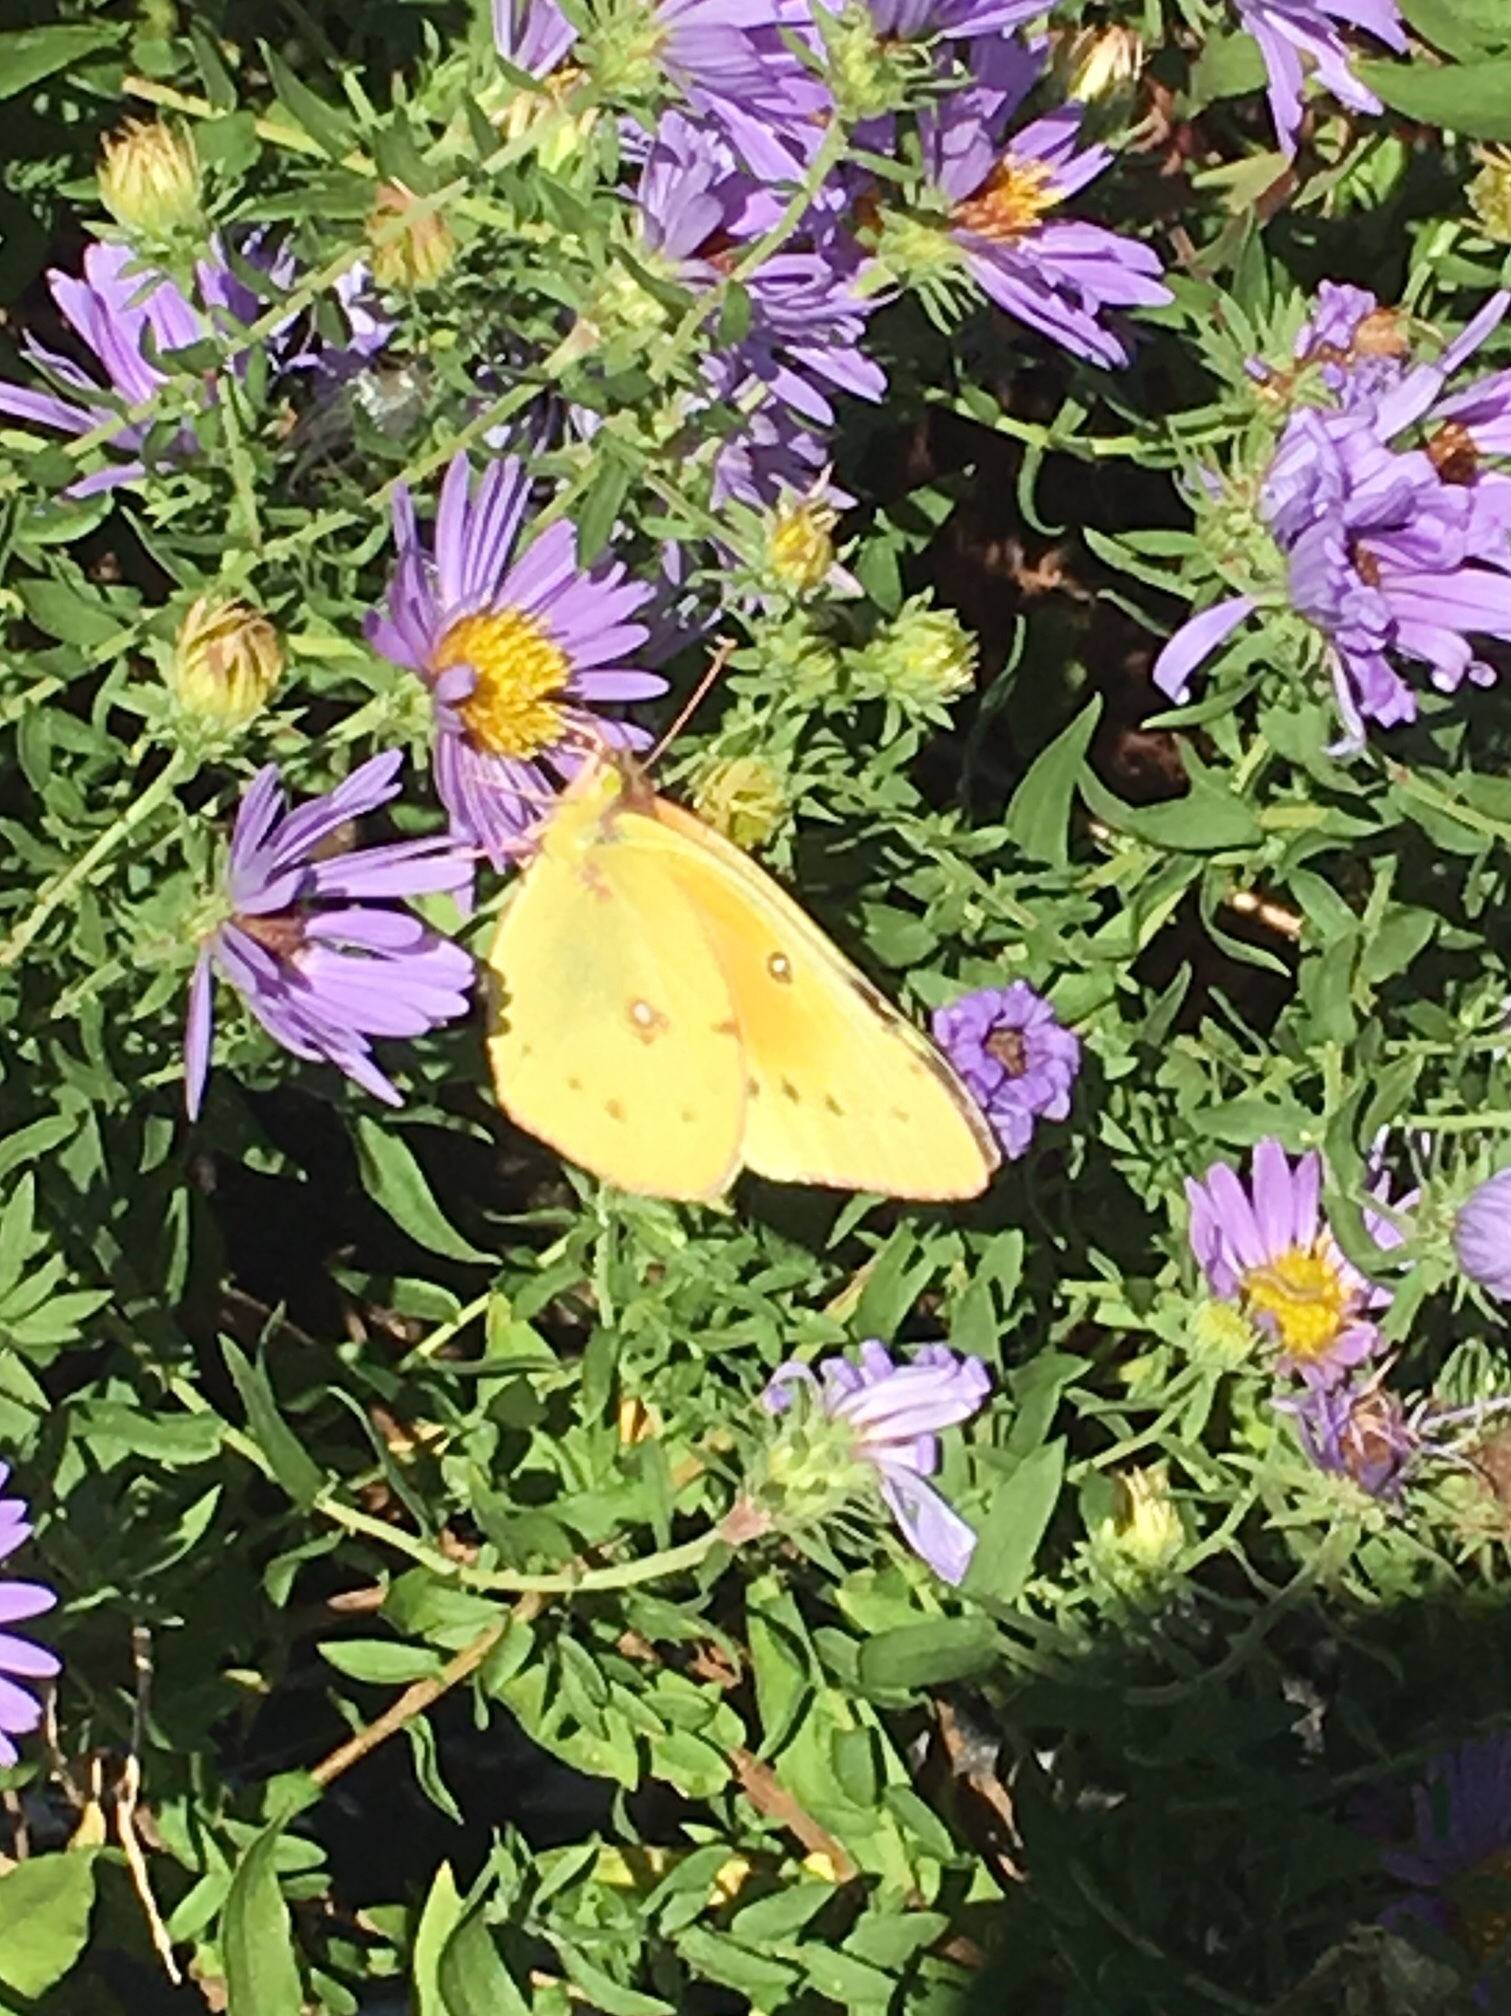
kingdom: Animalia
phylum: Arthropoda
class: Insecta
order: Lepidoptera
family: Pieridae
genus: Colias
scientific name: Colias eurytheme
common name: Alfalfa butterfly
